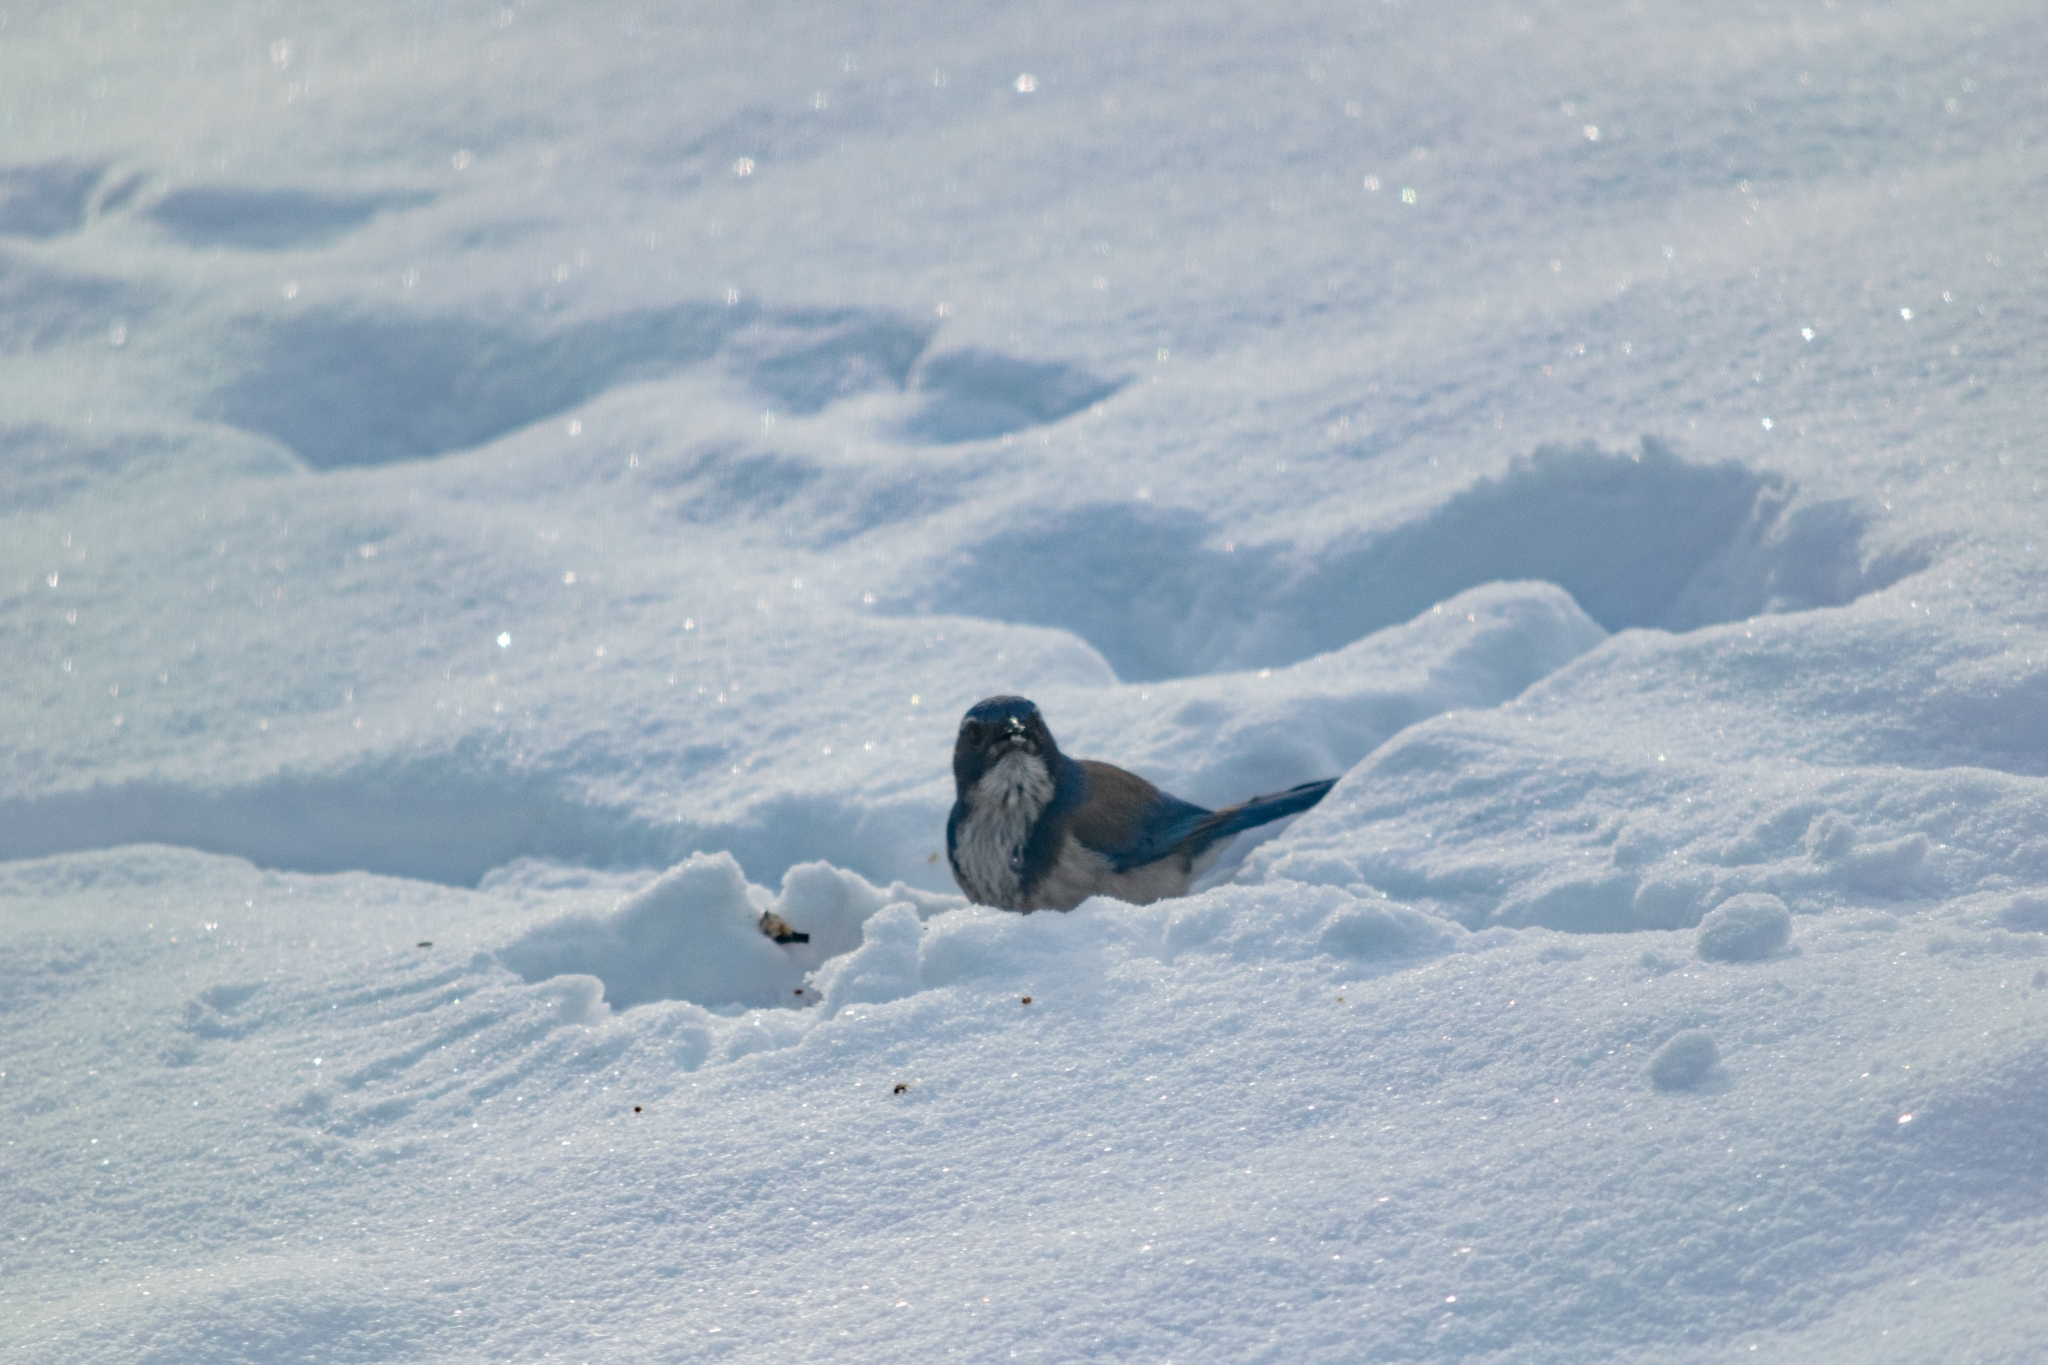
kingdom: Animalia
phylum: Chordata
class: Aves
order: Passeriformes
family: Corvidae
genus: Aphelocoma
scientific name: Aphelocoma californica
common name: California scrub-jay
